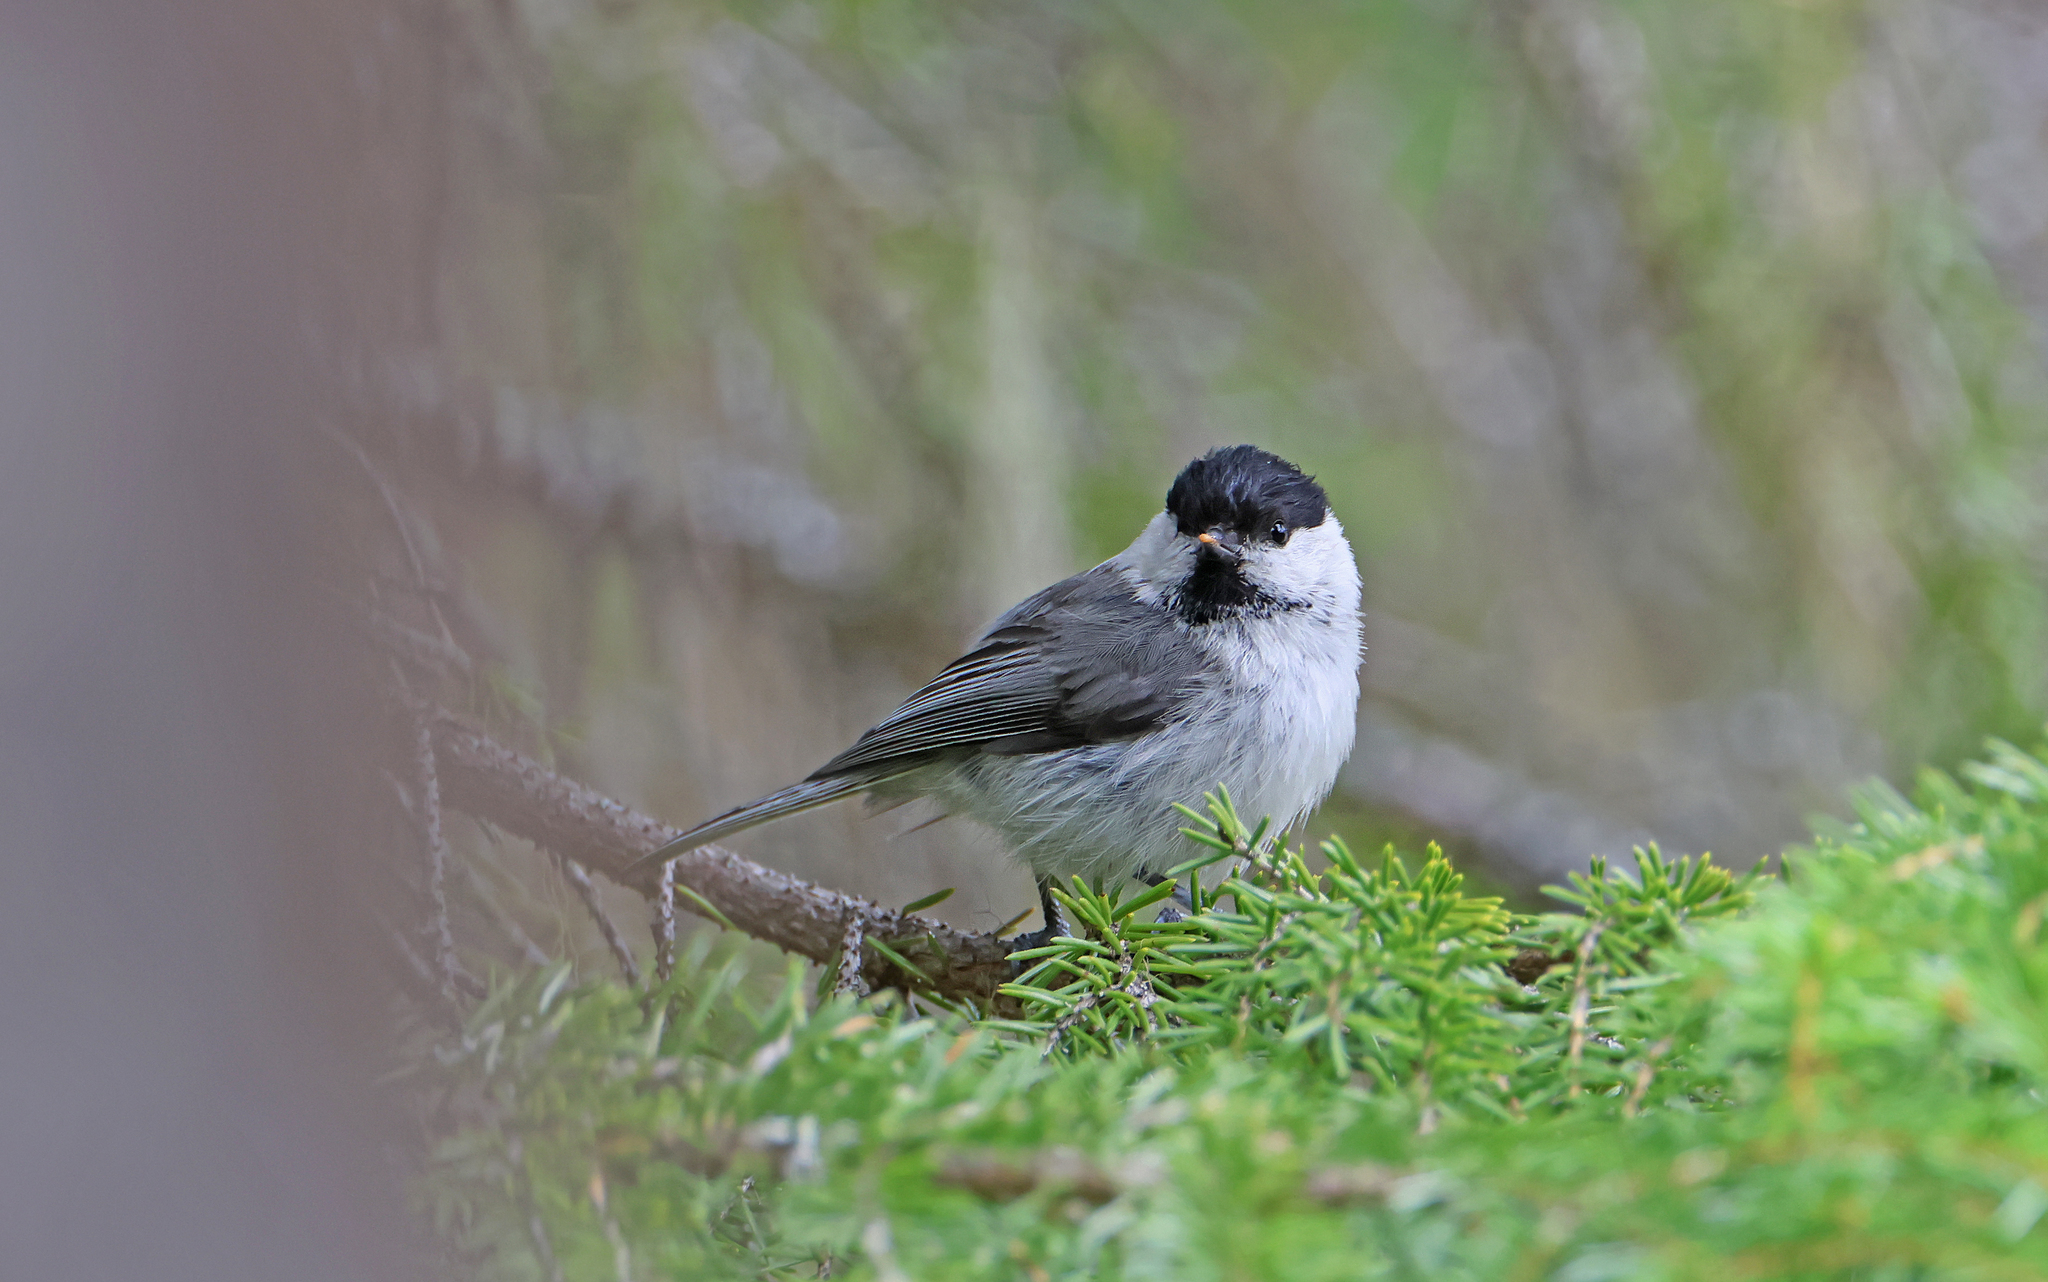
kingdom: Animalia
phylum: Chordata
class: Aves
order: Passeriformes
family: Paridae
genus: Poecile
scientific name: Poecile montanus
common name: Willow tit
